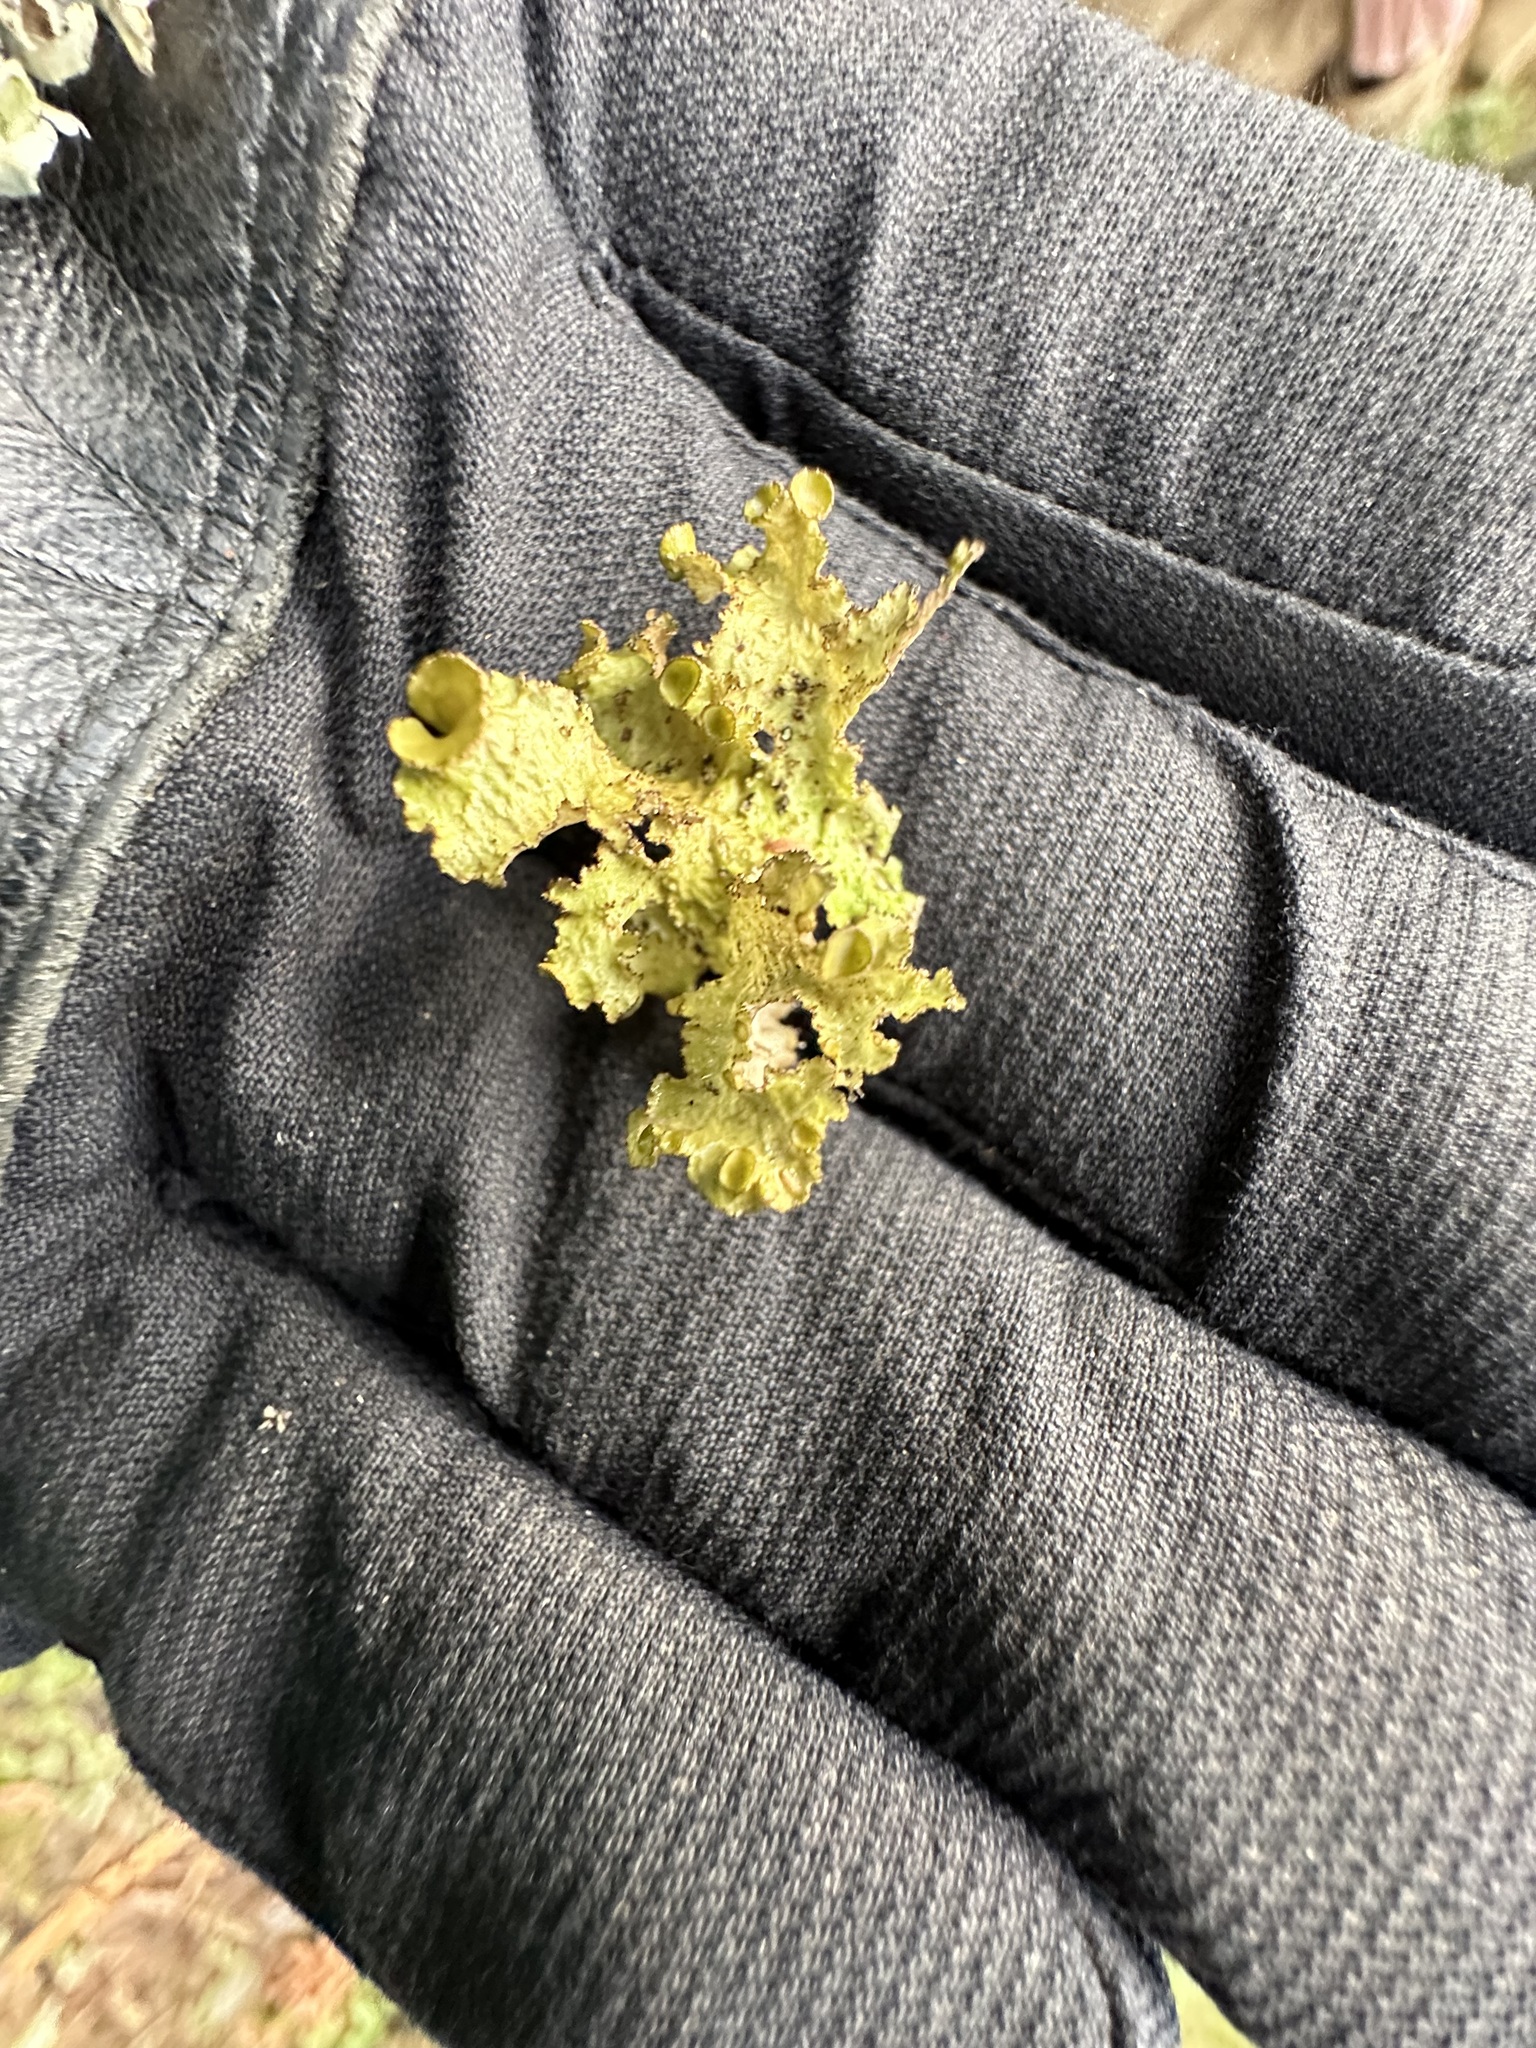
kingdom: Fungi
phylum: Ascomycota
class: Lecanoromycetes
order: Lecanorales
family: Parmeliaceae
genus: Nephromopsis
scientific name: Nephromopsis orbata
